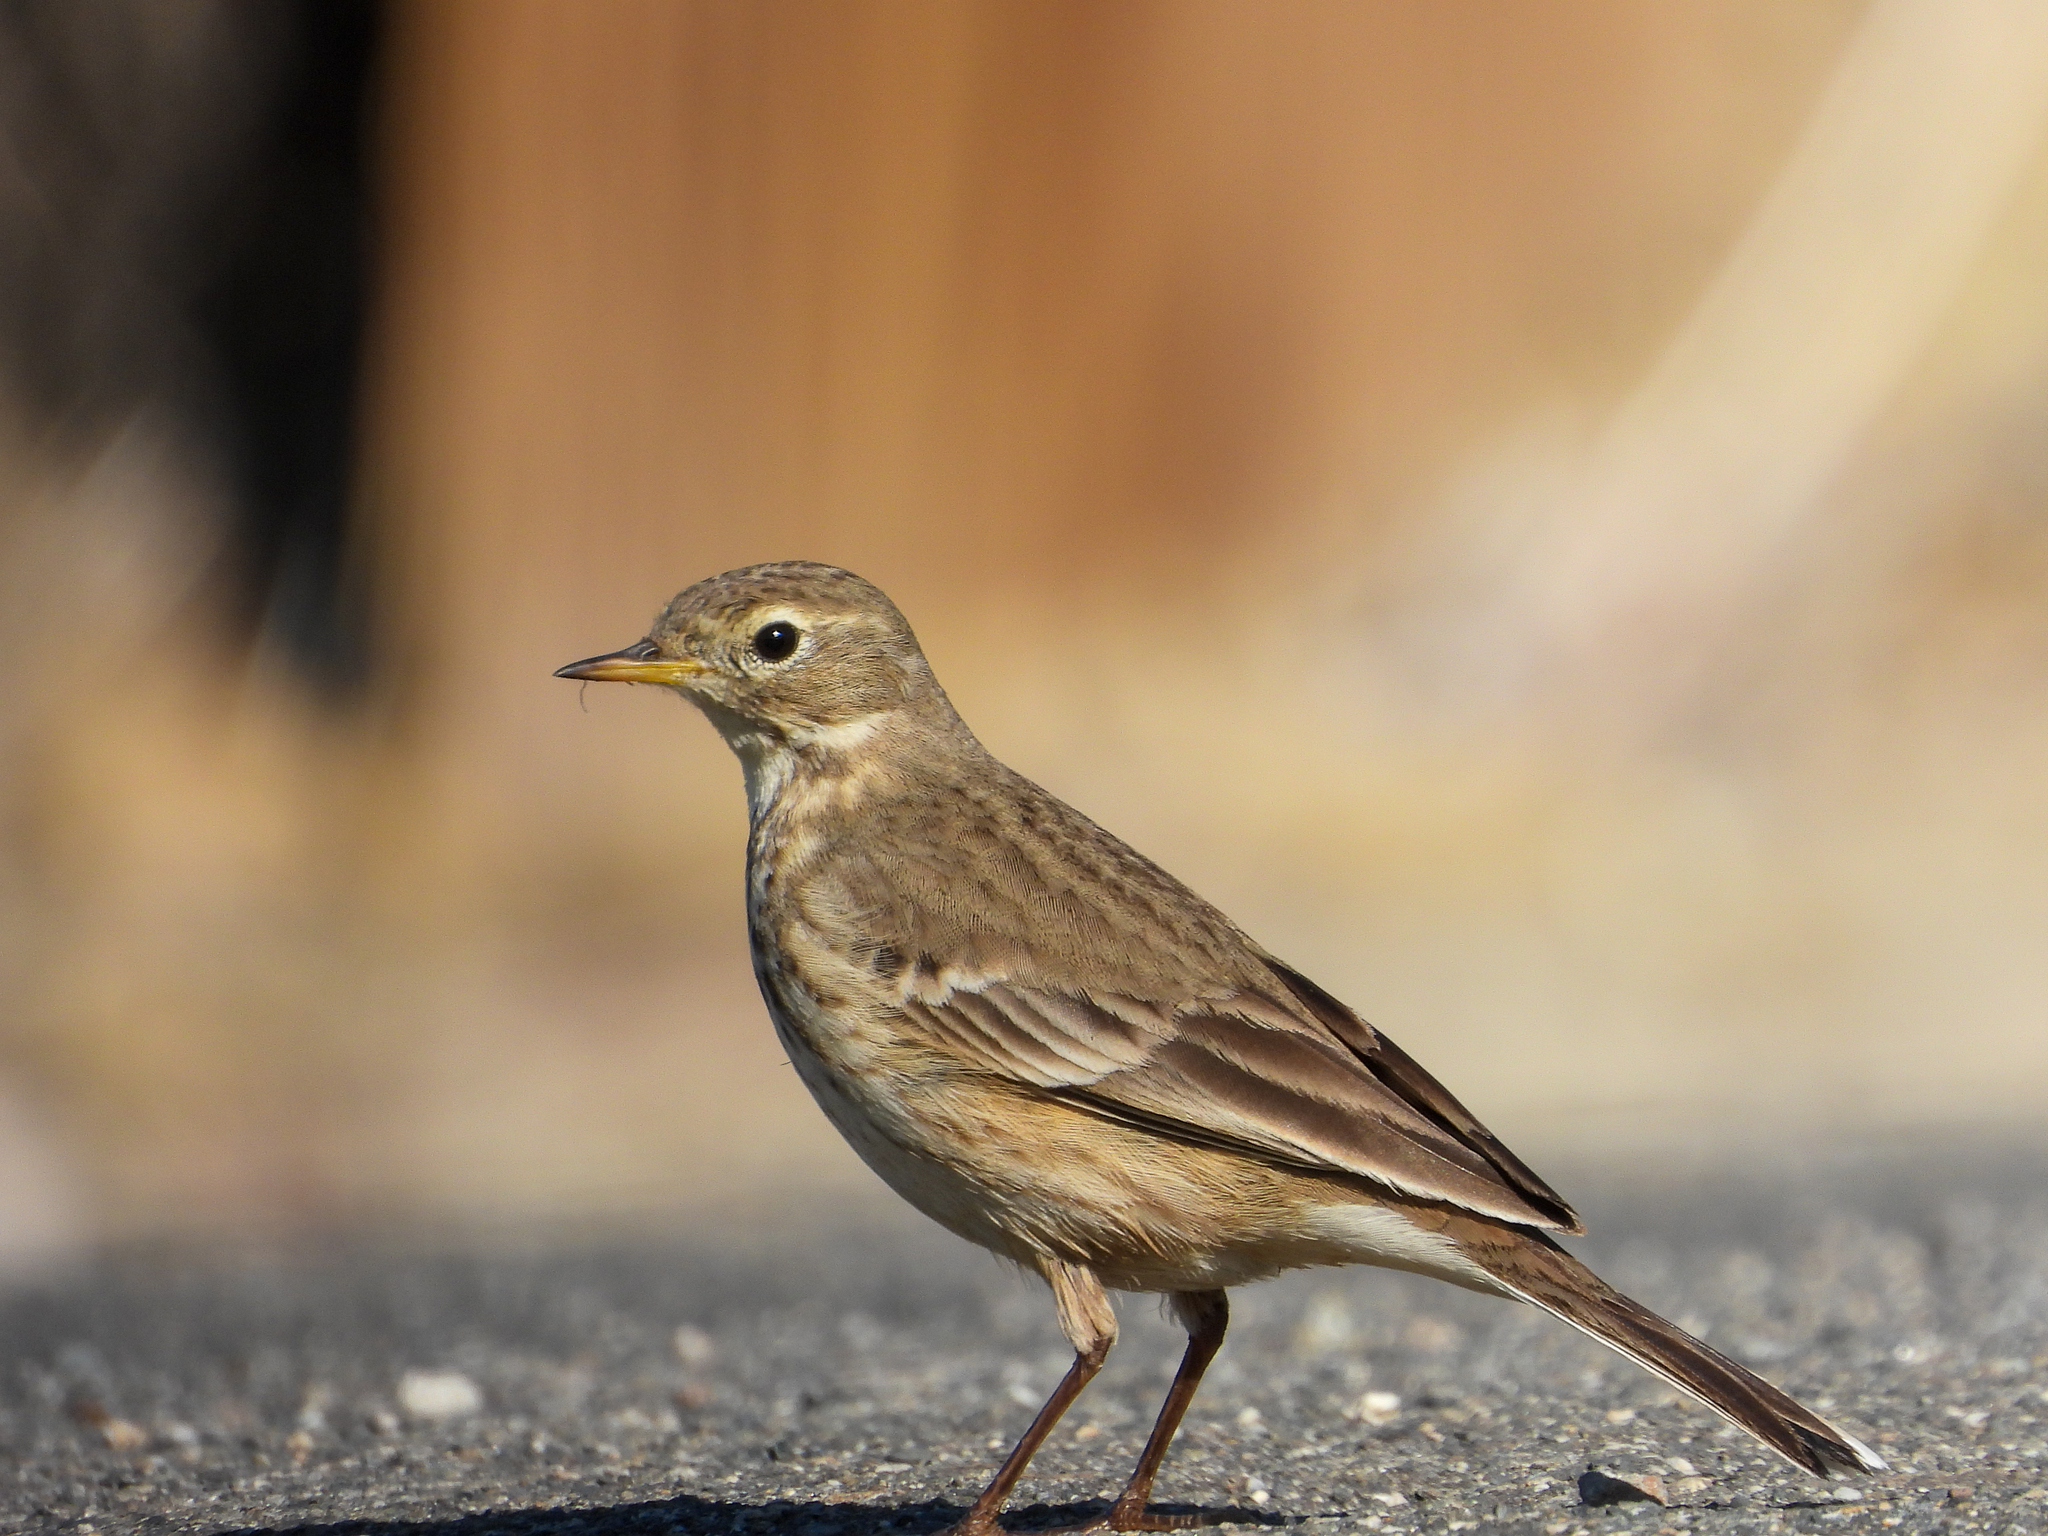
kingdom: Animalia
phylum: Chordata
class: Aves
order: Passeriformes
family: Motacillidae
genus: Anthus
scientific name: Anthus rubescens
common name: Buff-bellied pipit
